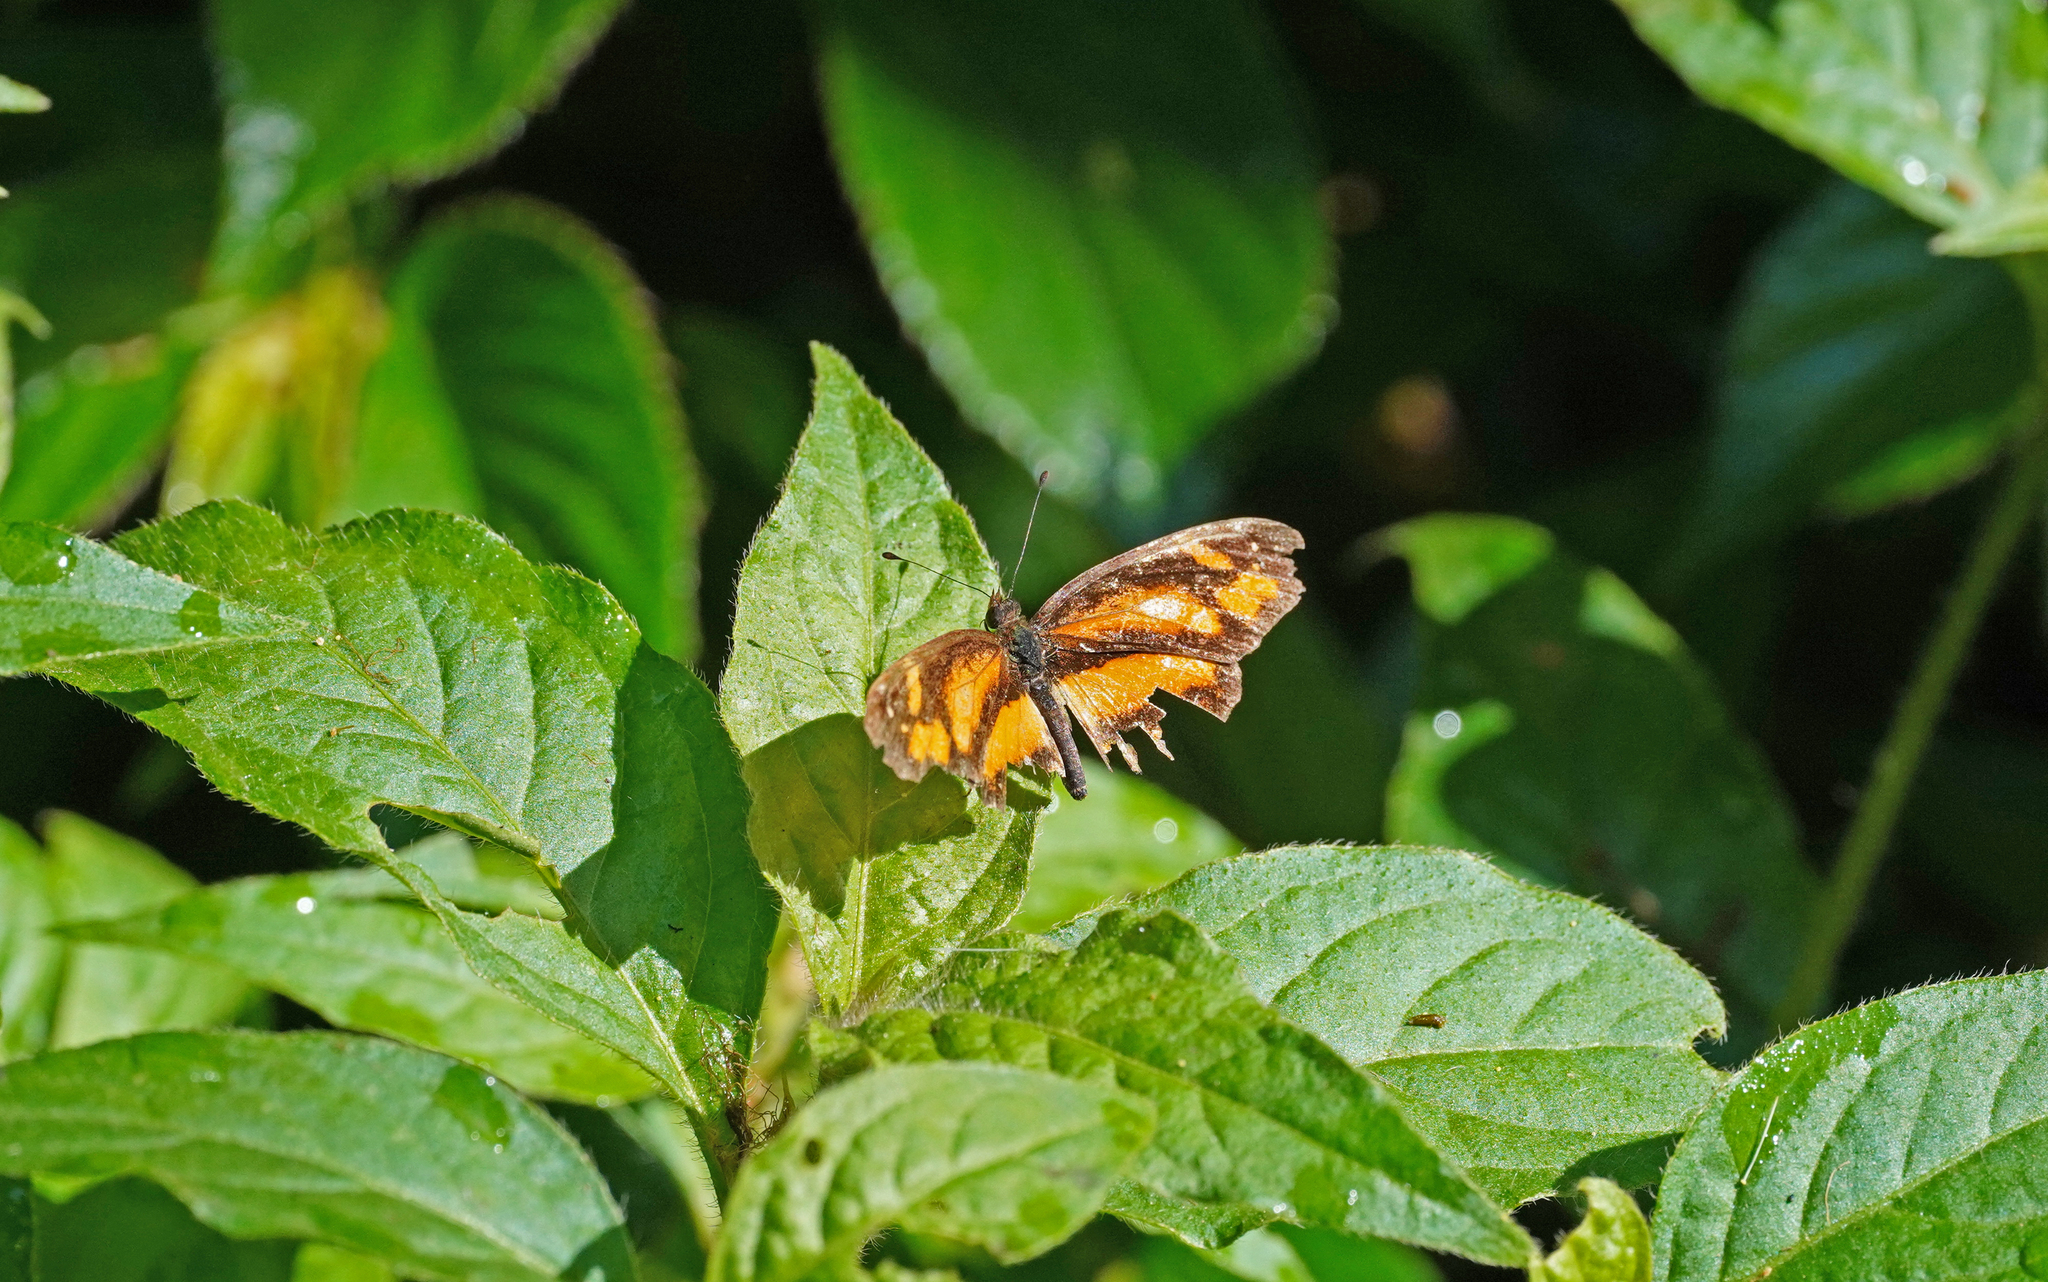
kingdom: Animalia
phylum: Arthropoda
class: Insecta
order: Lepidoptera
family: Nymphalidae
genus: Castilia
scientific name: Castilia eranites
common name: Smudged crescent
